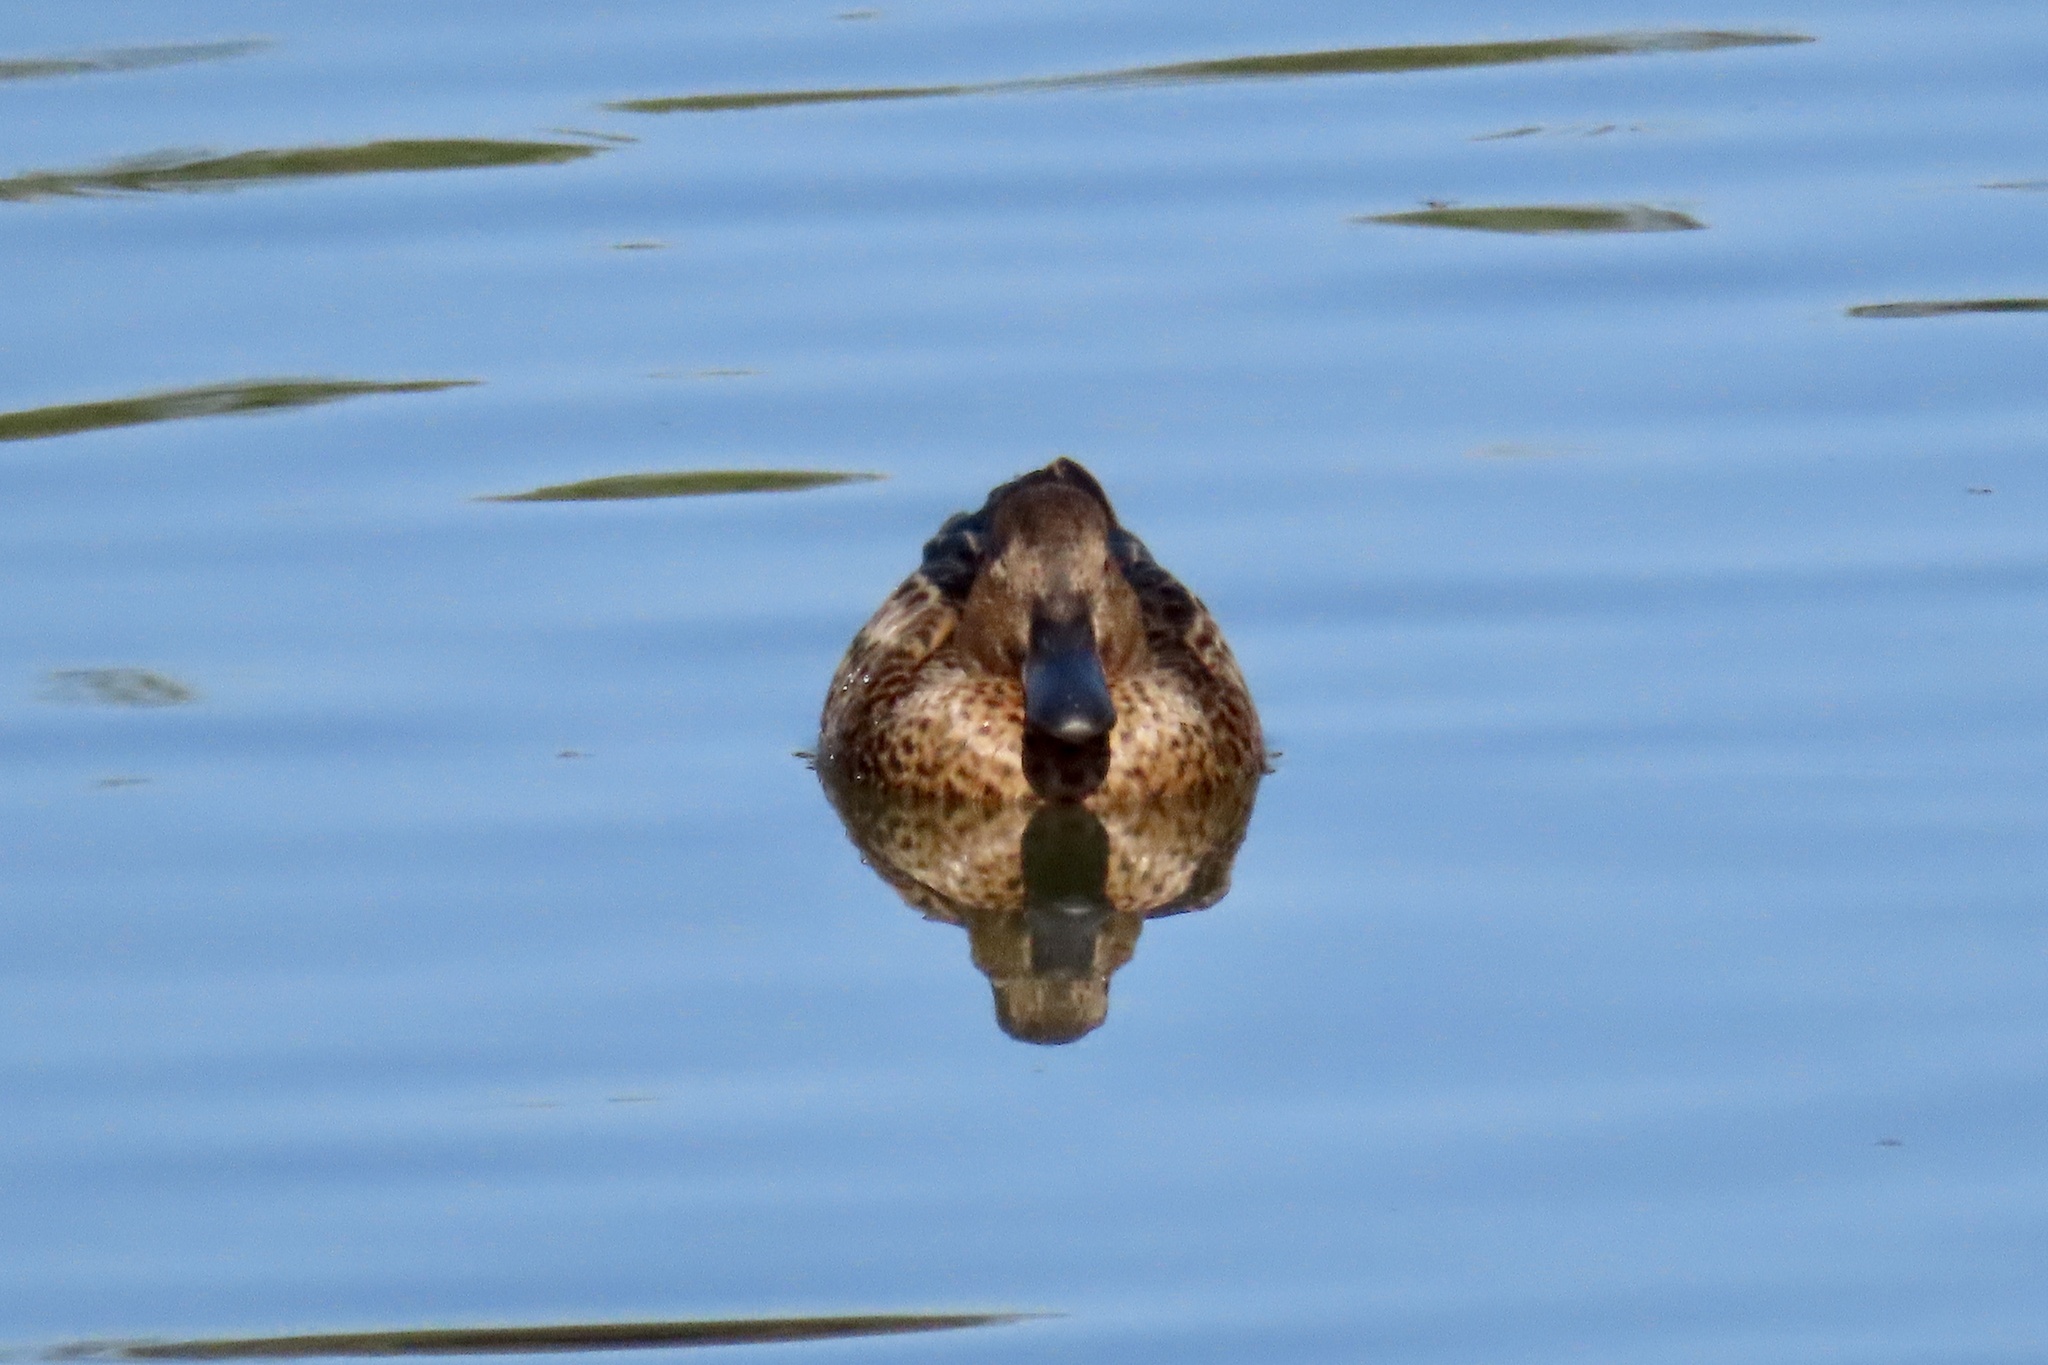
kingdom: Animalia
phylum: Chordata
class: Aves
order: Anseriformes
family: Anatidae
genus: Spatula
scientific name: Spatula cyanoptera
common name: Cinnamon teal
